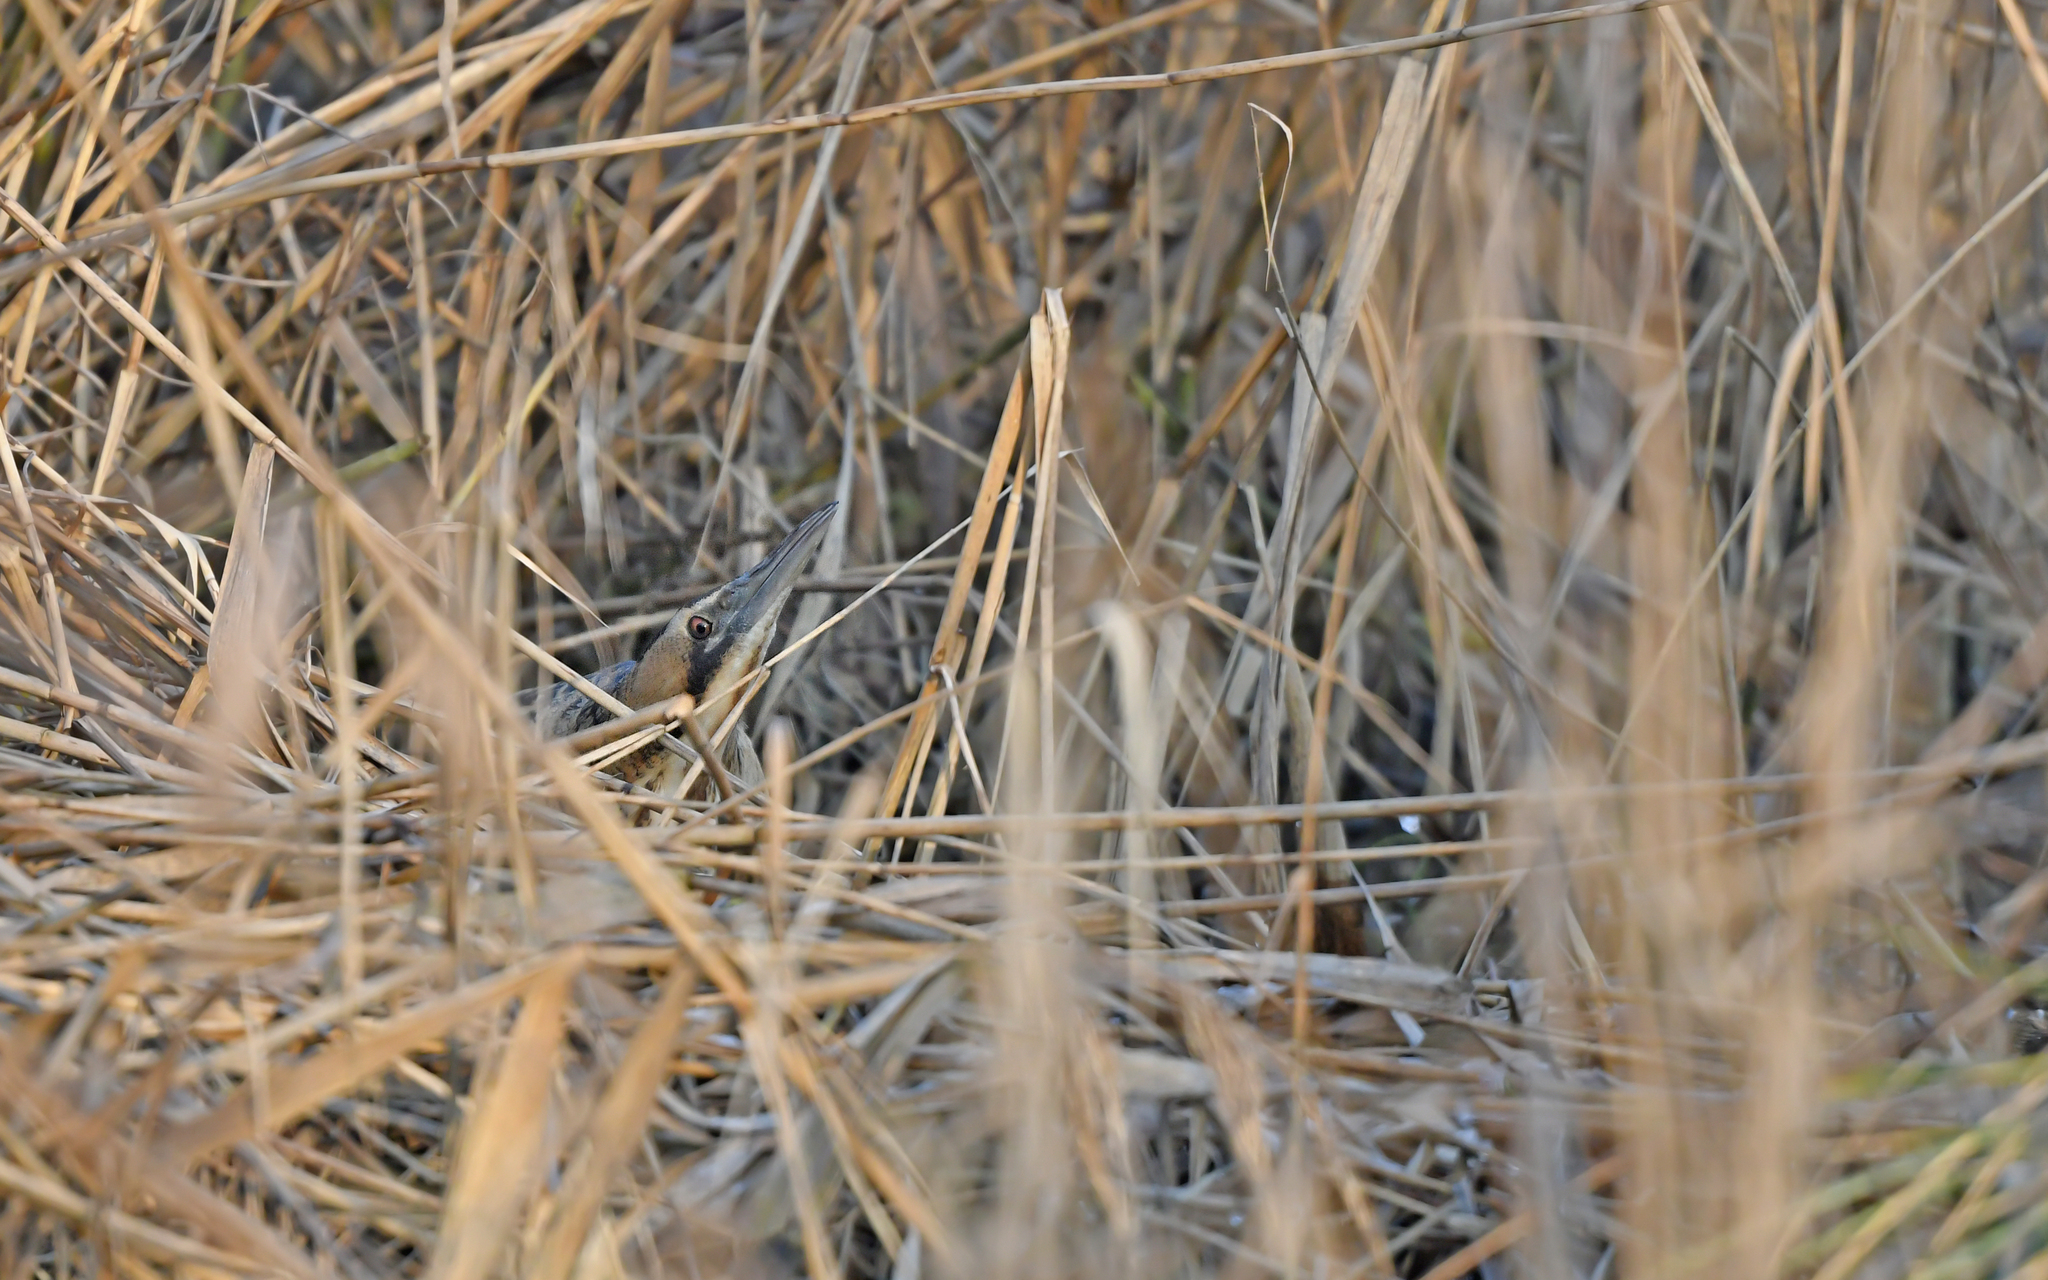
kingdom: Animalia
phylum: Chordata
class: Aves
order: Pelecaniformes
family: Ardeidae
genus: Botaurus
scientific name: Botaurus stellaris
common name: Eurasian bittern
